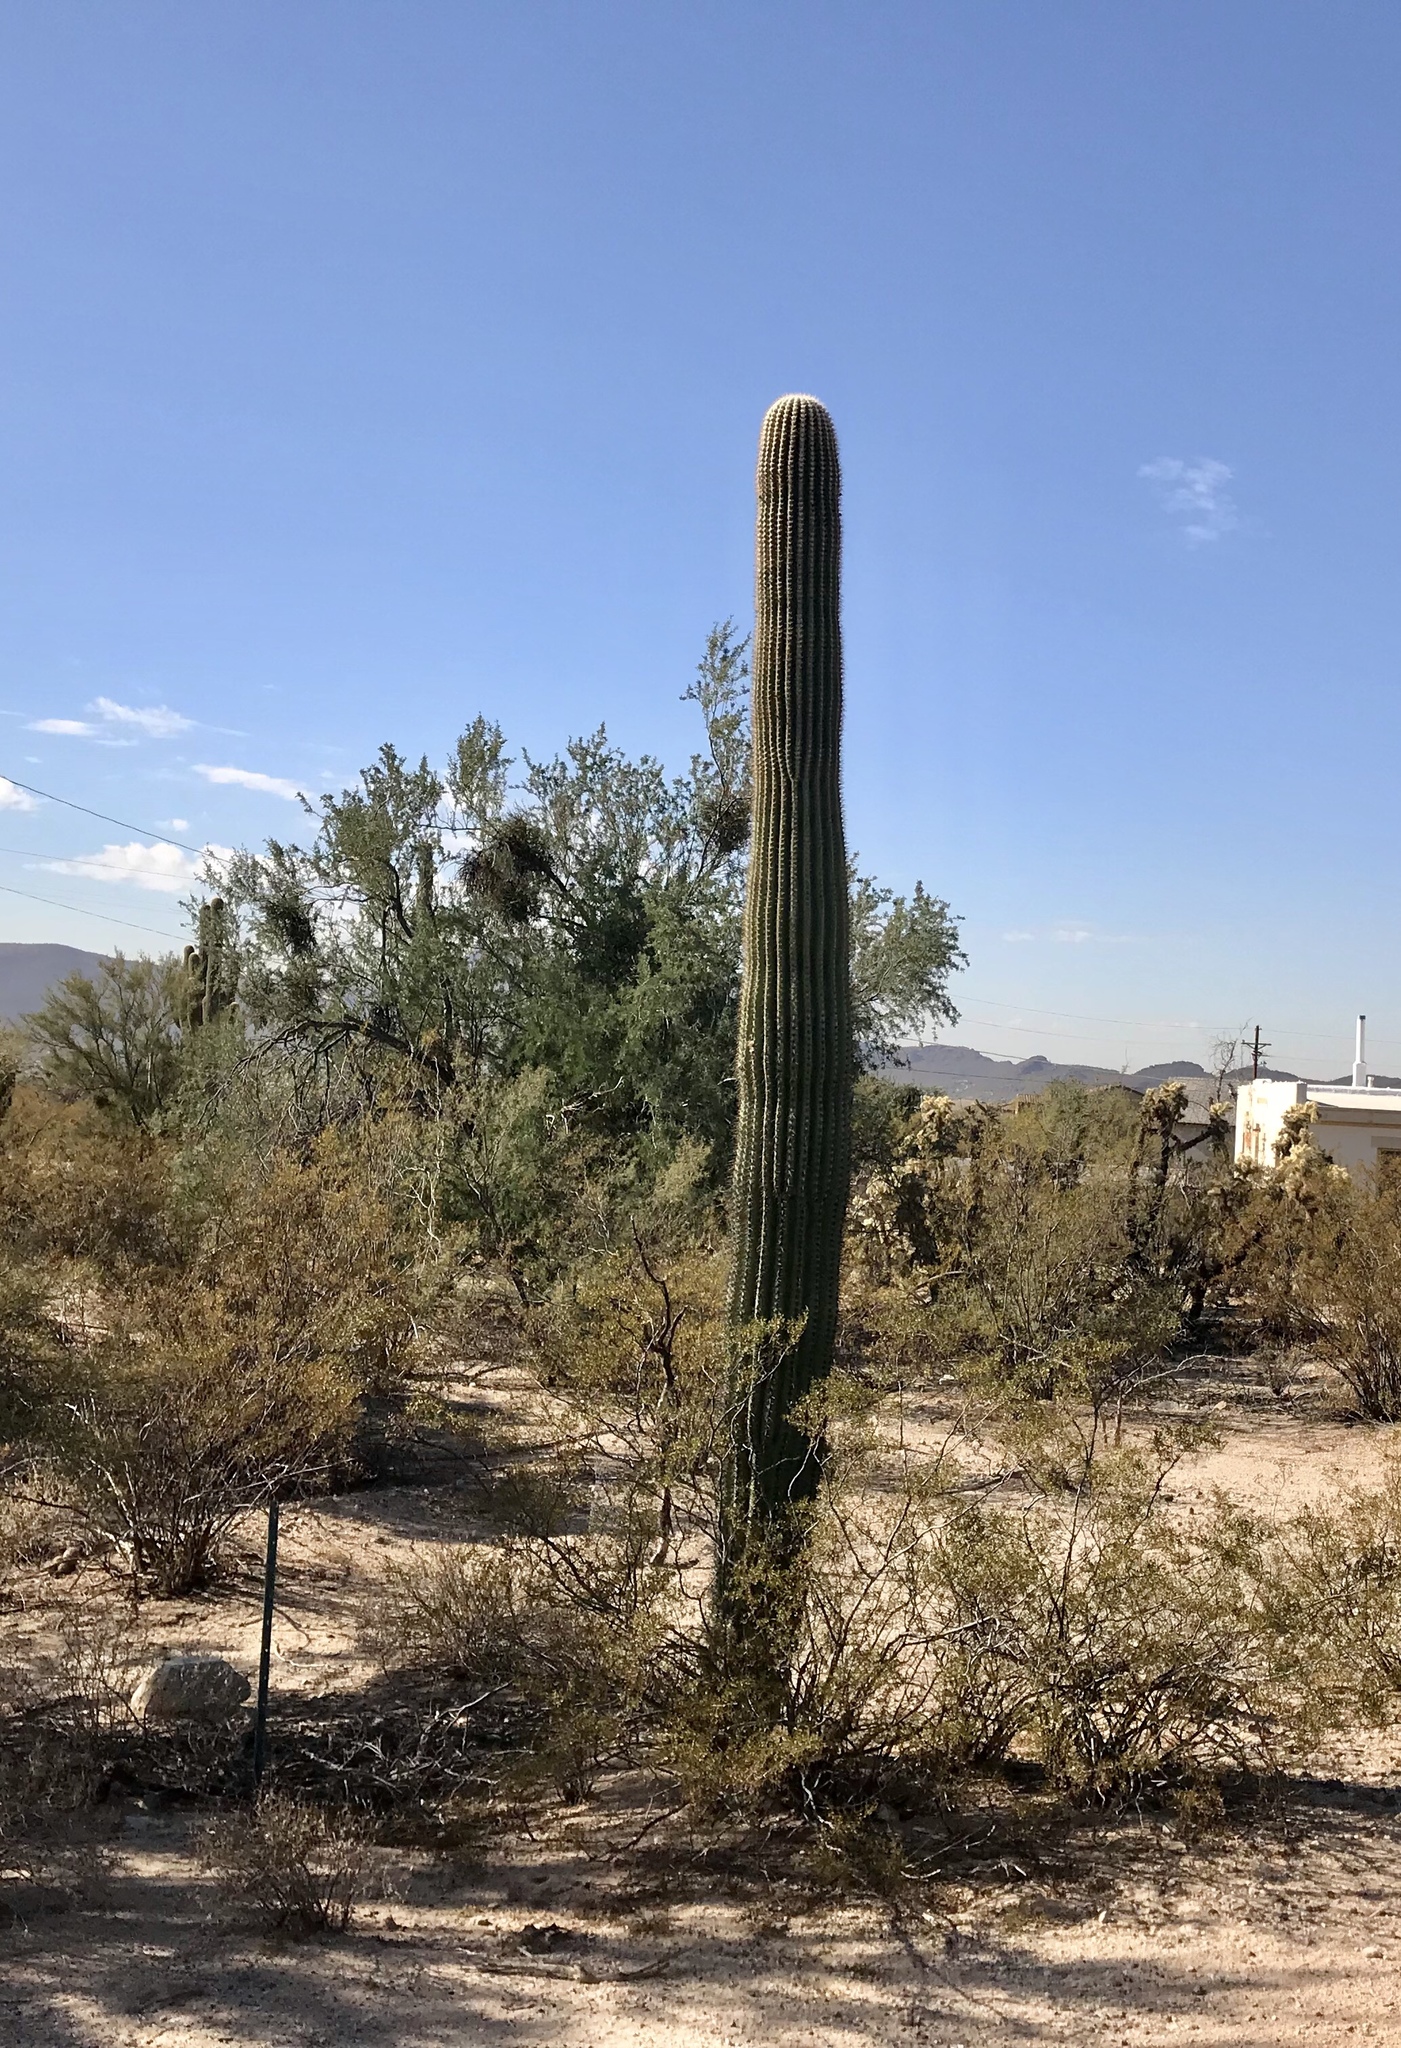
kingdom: Plantae
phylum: Tracheophyta
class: Magnoliopsida
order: Caryophyllales
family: Cactaceae
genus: Carnegiea
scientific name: Carnegiea gigantea
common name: Saguaro
